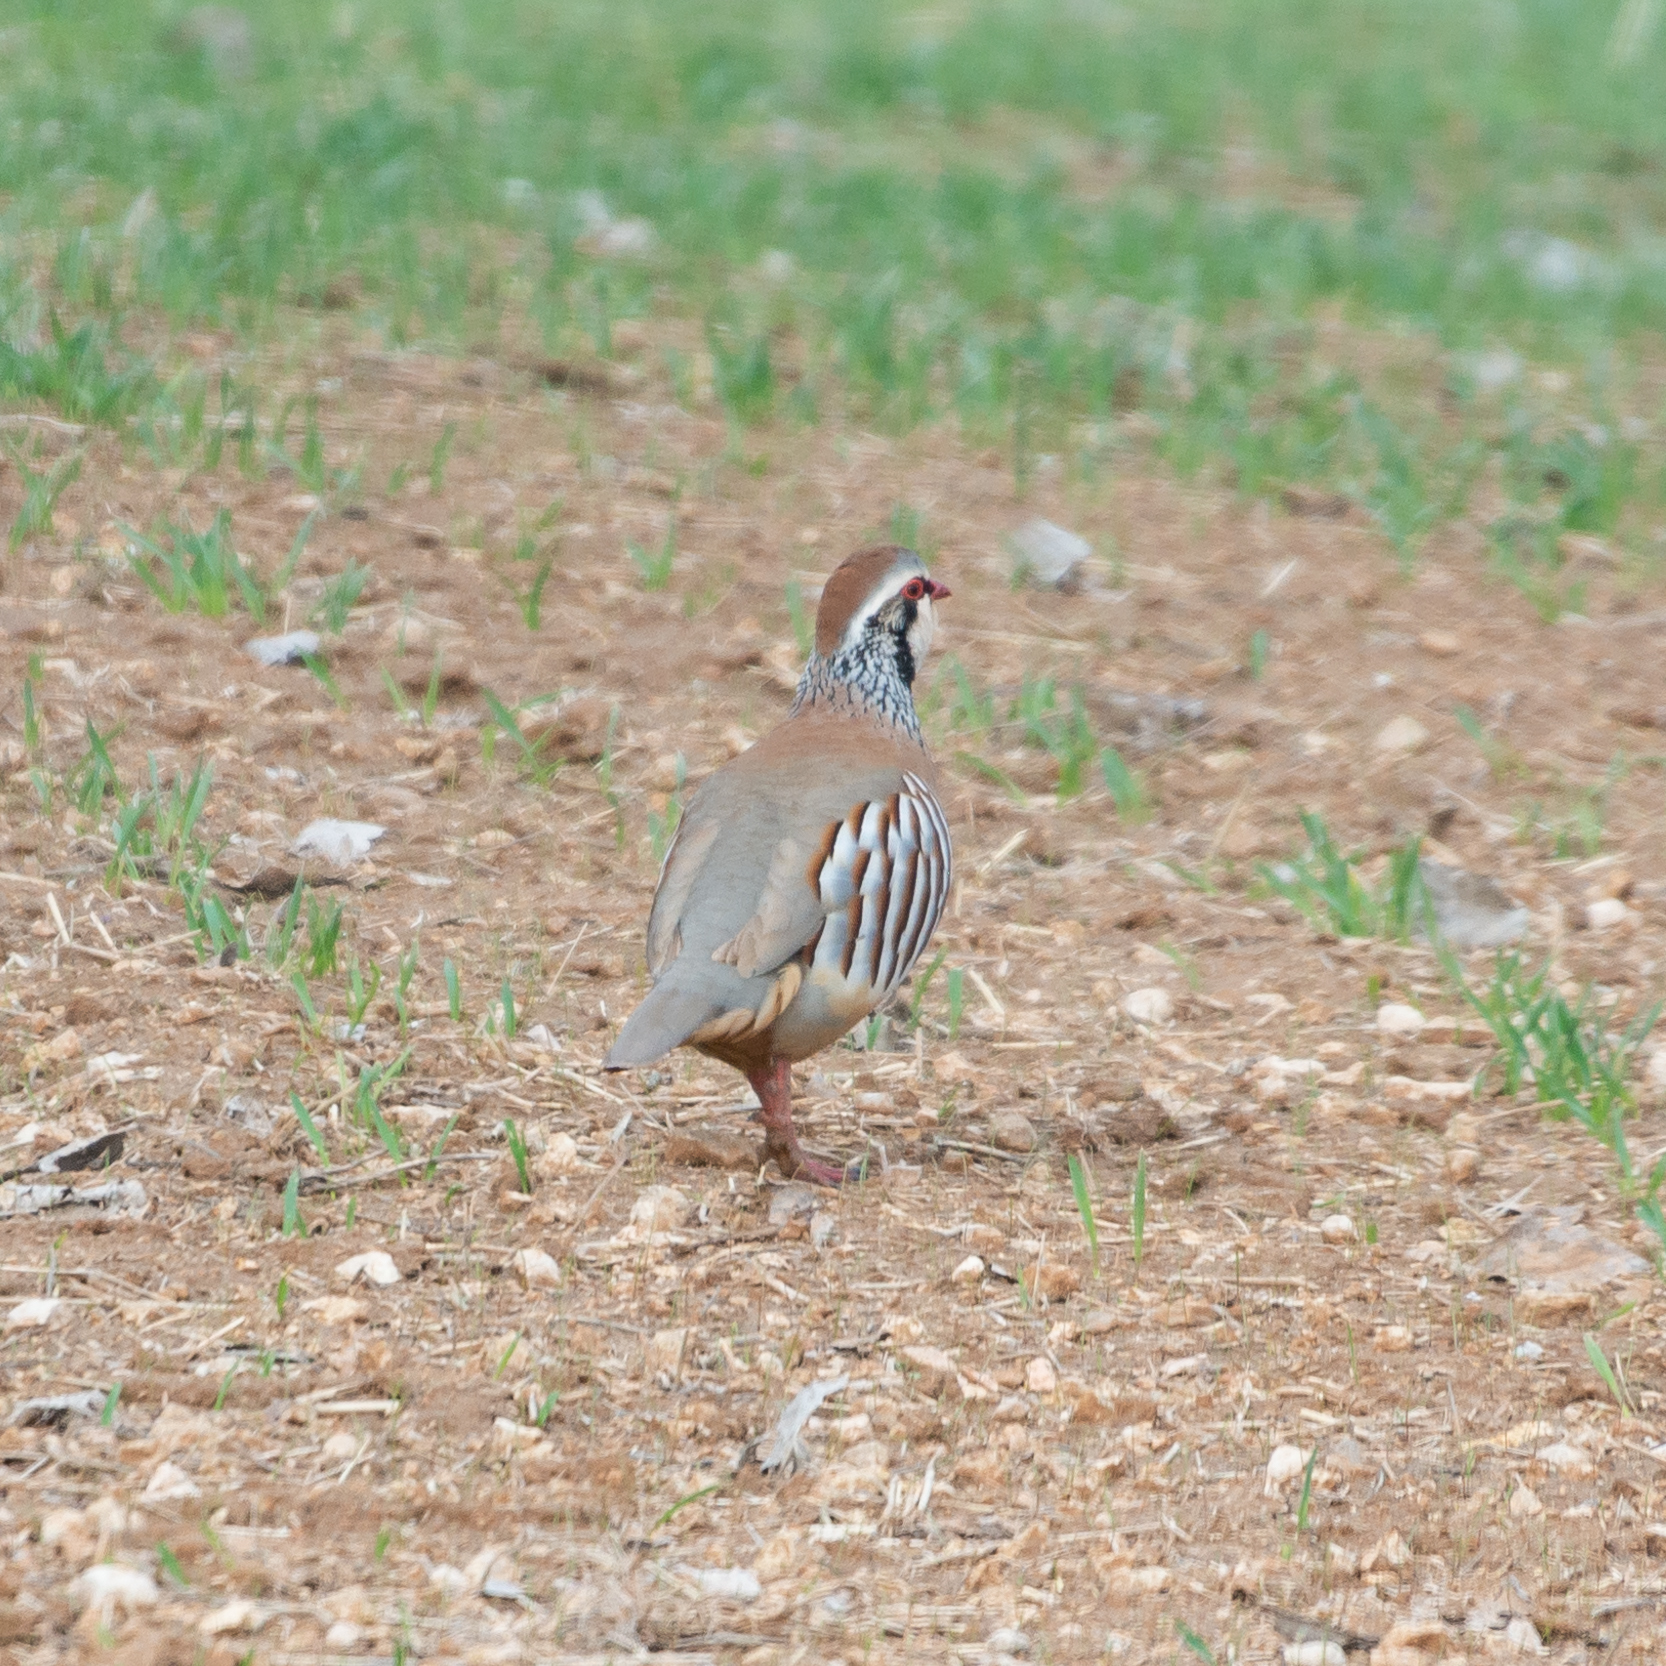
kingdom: Animalia
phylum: Chordata
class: Aves
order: Galliformes
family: Phasianidae
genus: Alectoris
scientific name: Alectoris rufa
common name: Red-legged partridge
